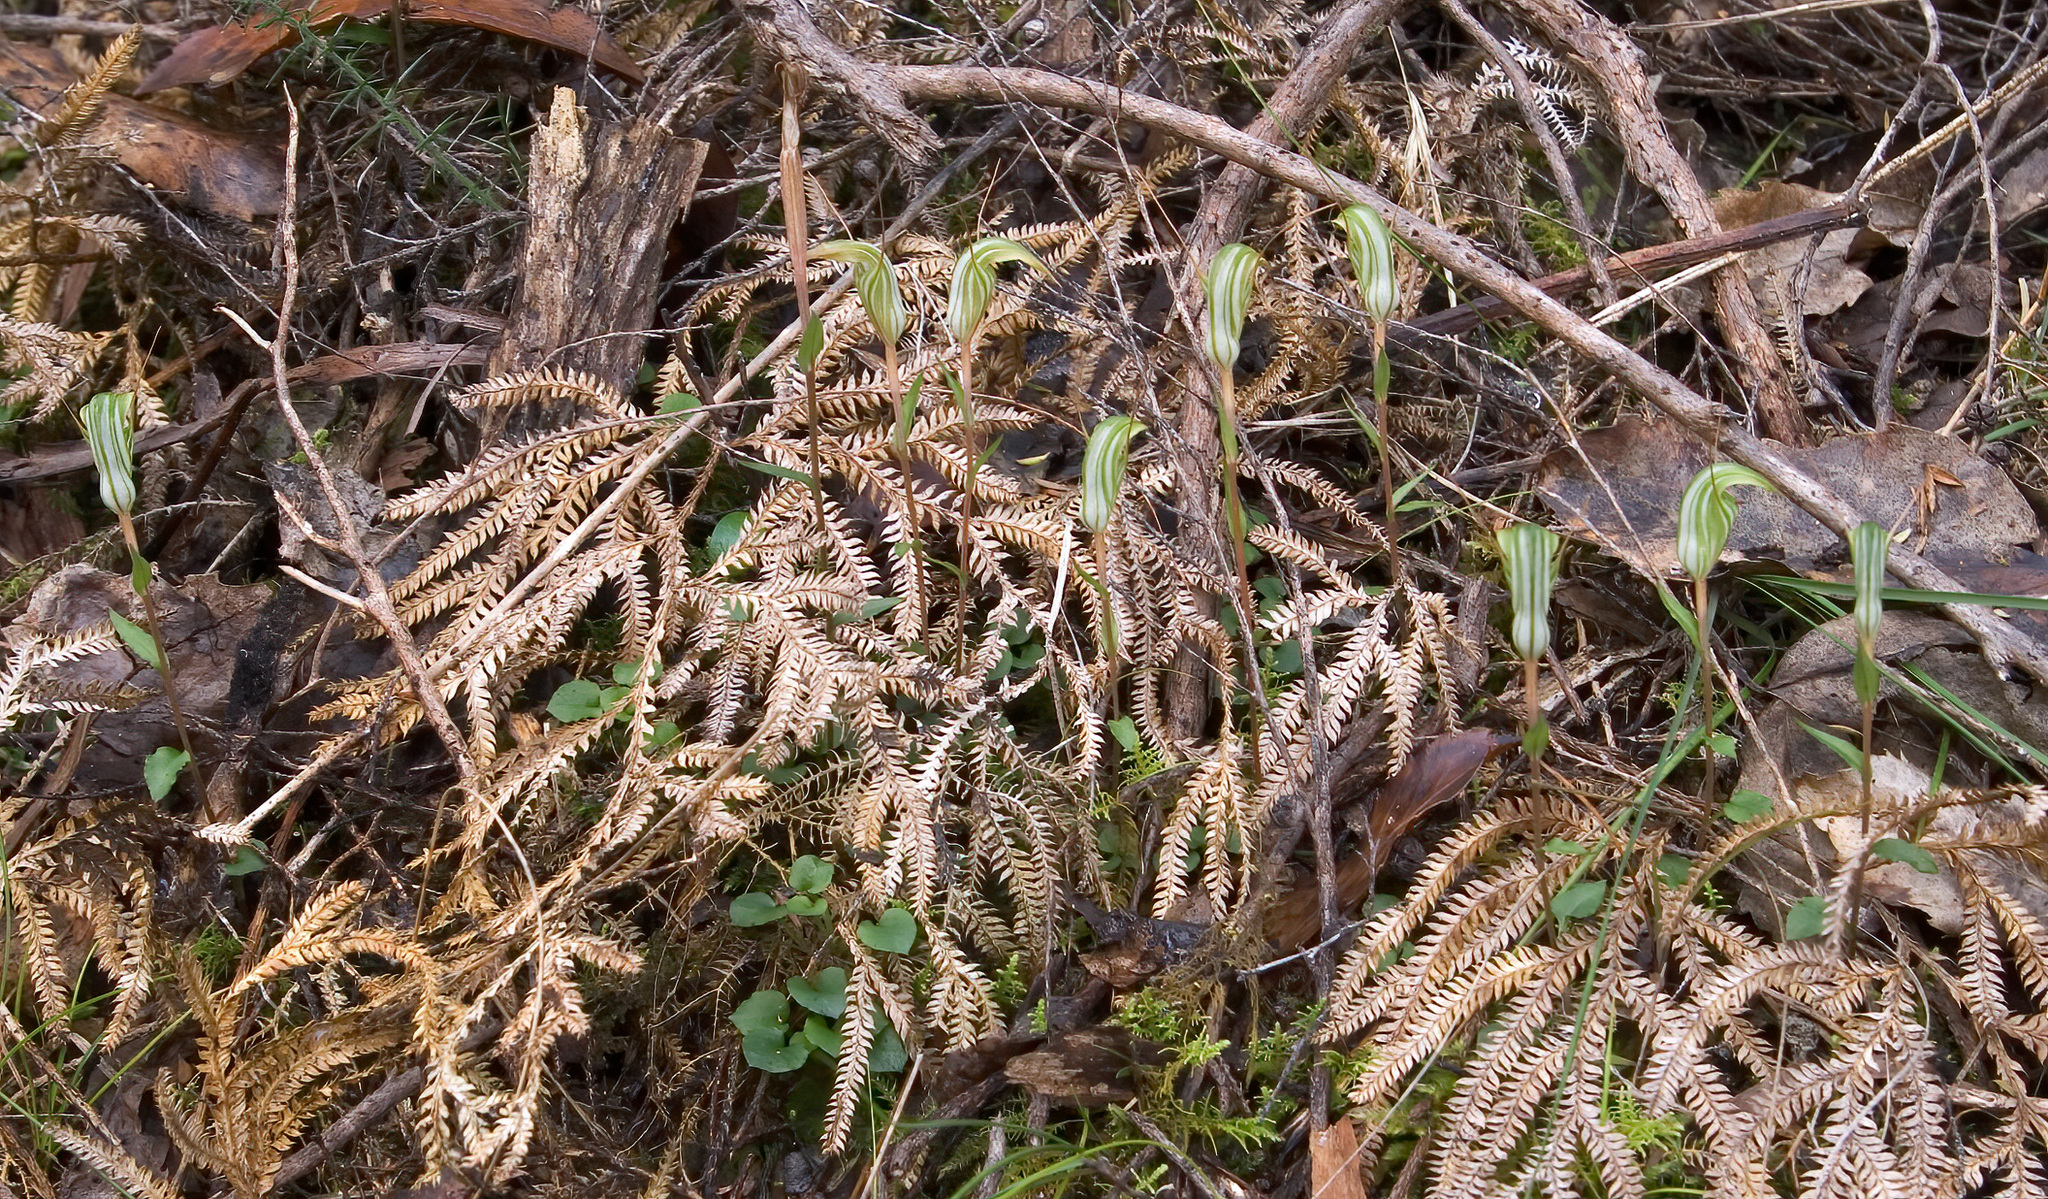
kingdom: Plantae
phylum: Tracheophyta
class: Liliopsida
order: Asparagales
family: Orchidaceae
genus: Pterostylis
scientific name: Pterostylis alobula
